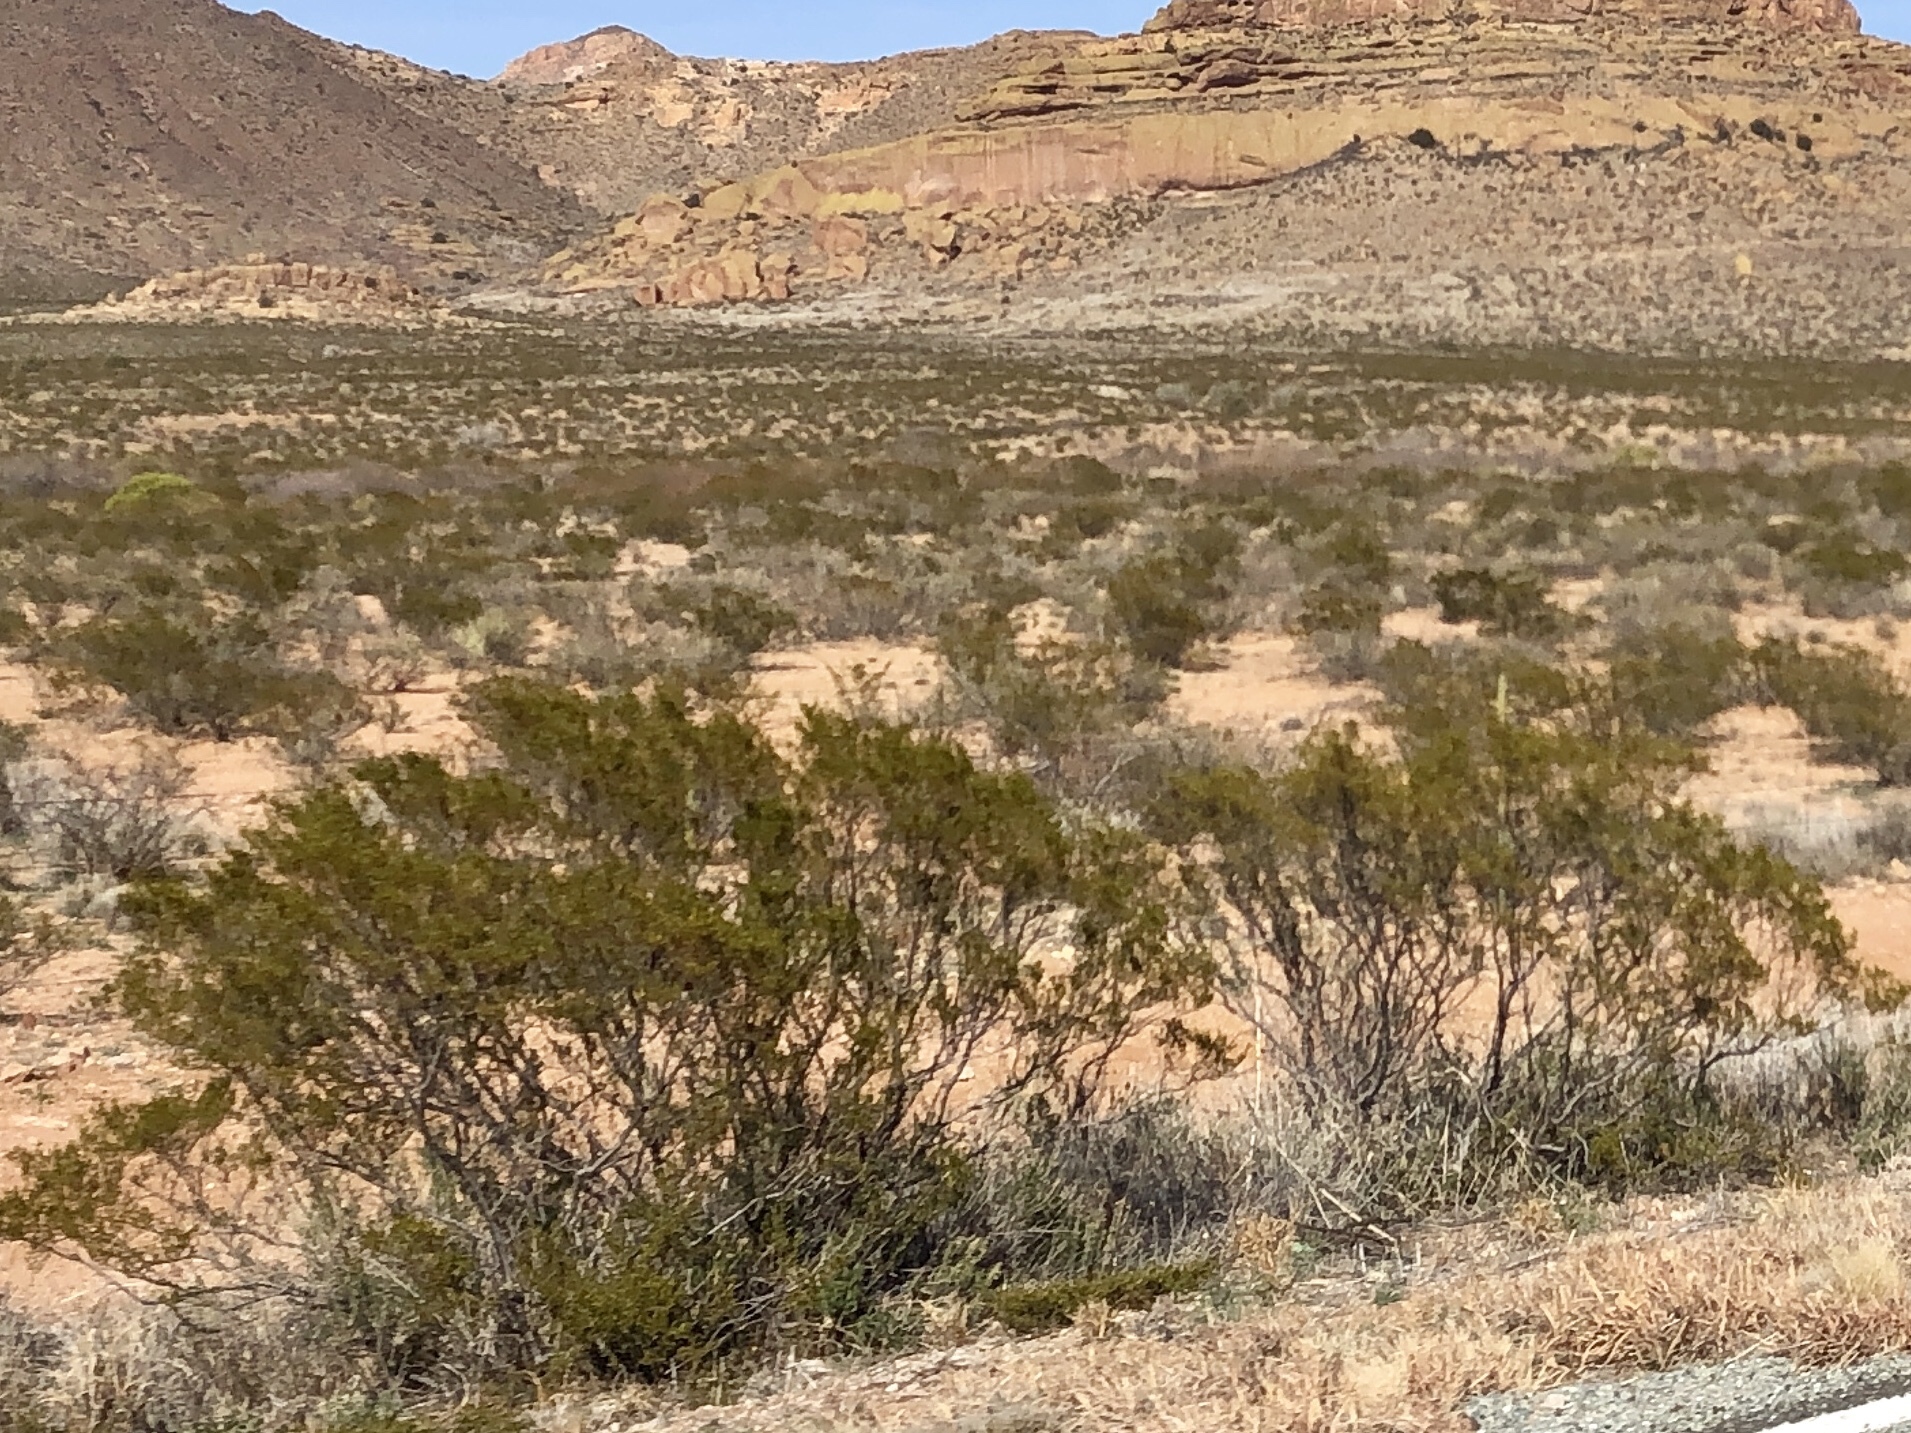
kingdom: Plantae
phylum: Tracheophyta
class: Magnoliopsida
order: Zygophyllales
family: Zygophyllaceae
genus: Larrea
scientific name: Larrea tridentata
